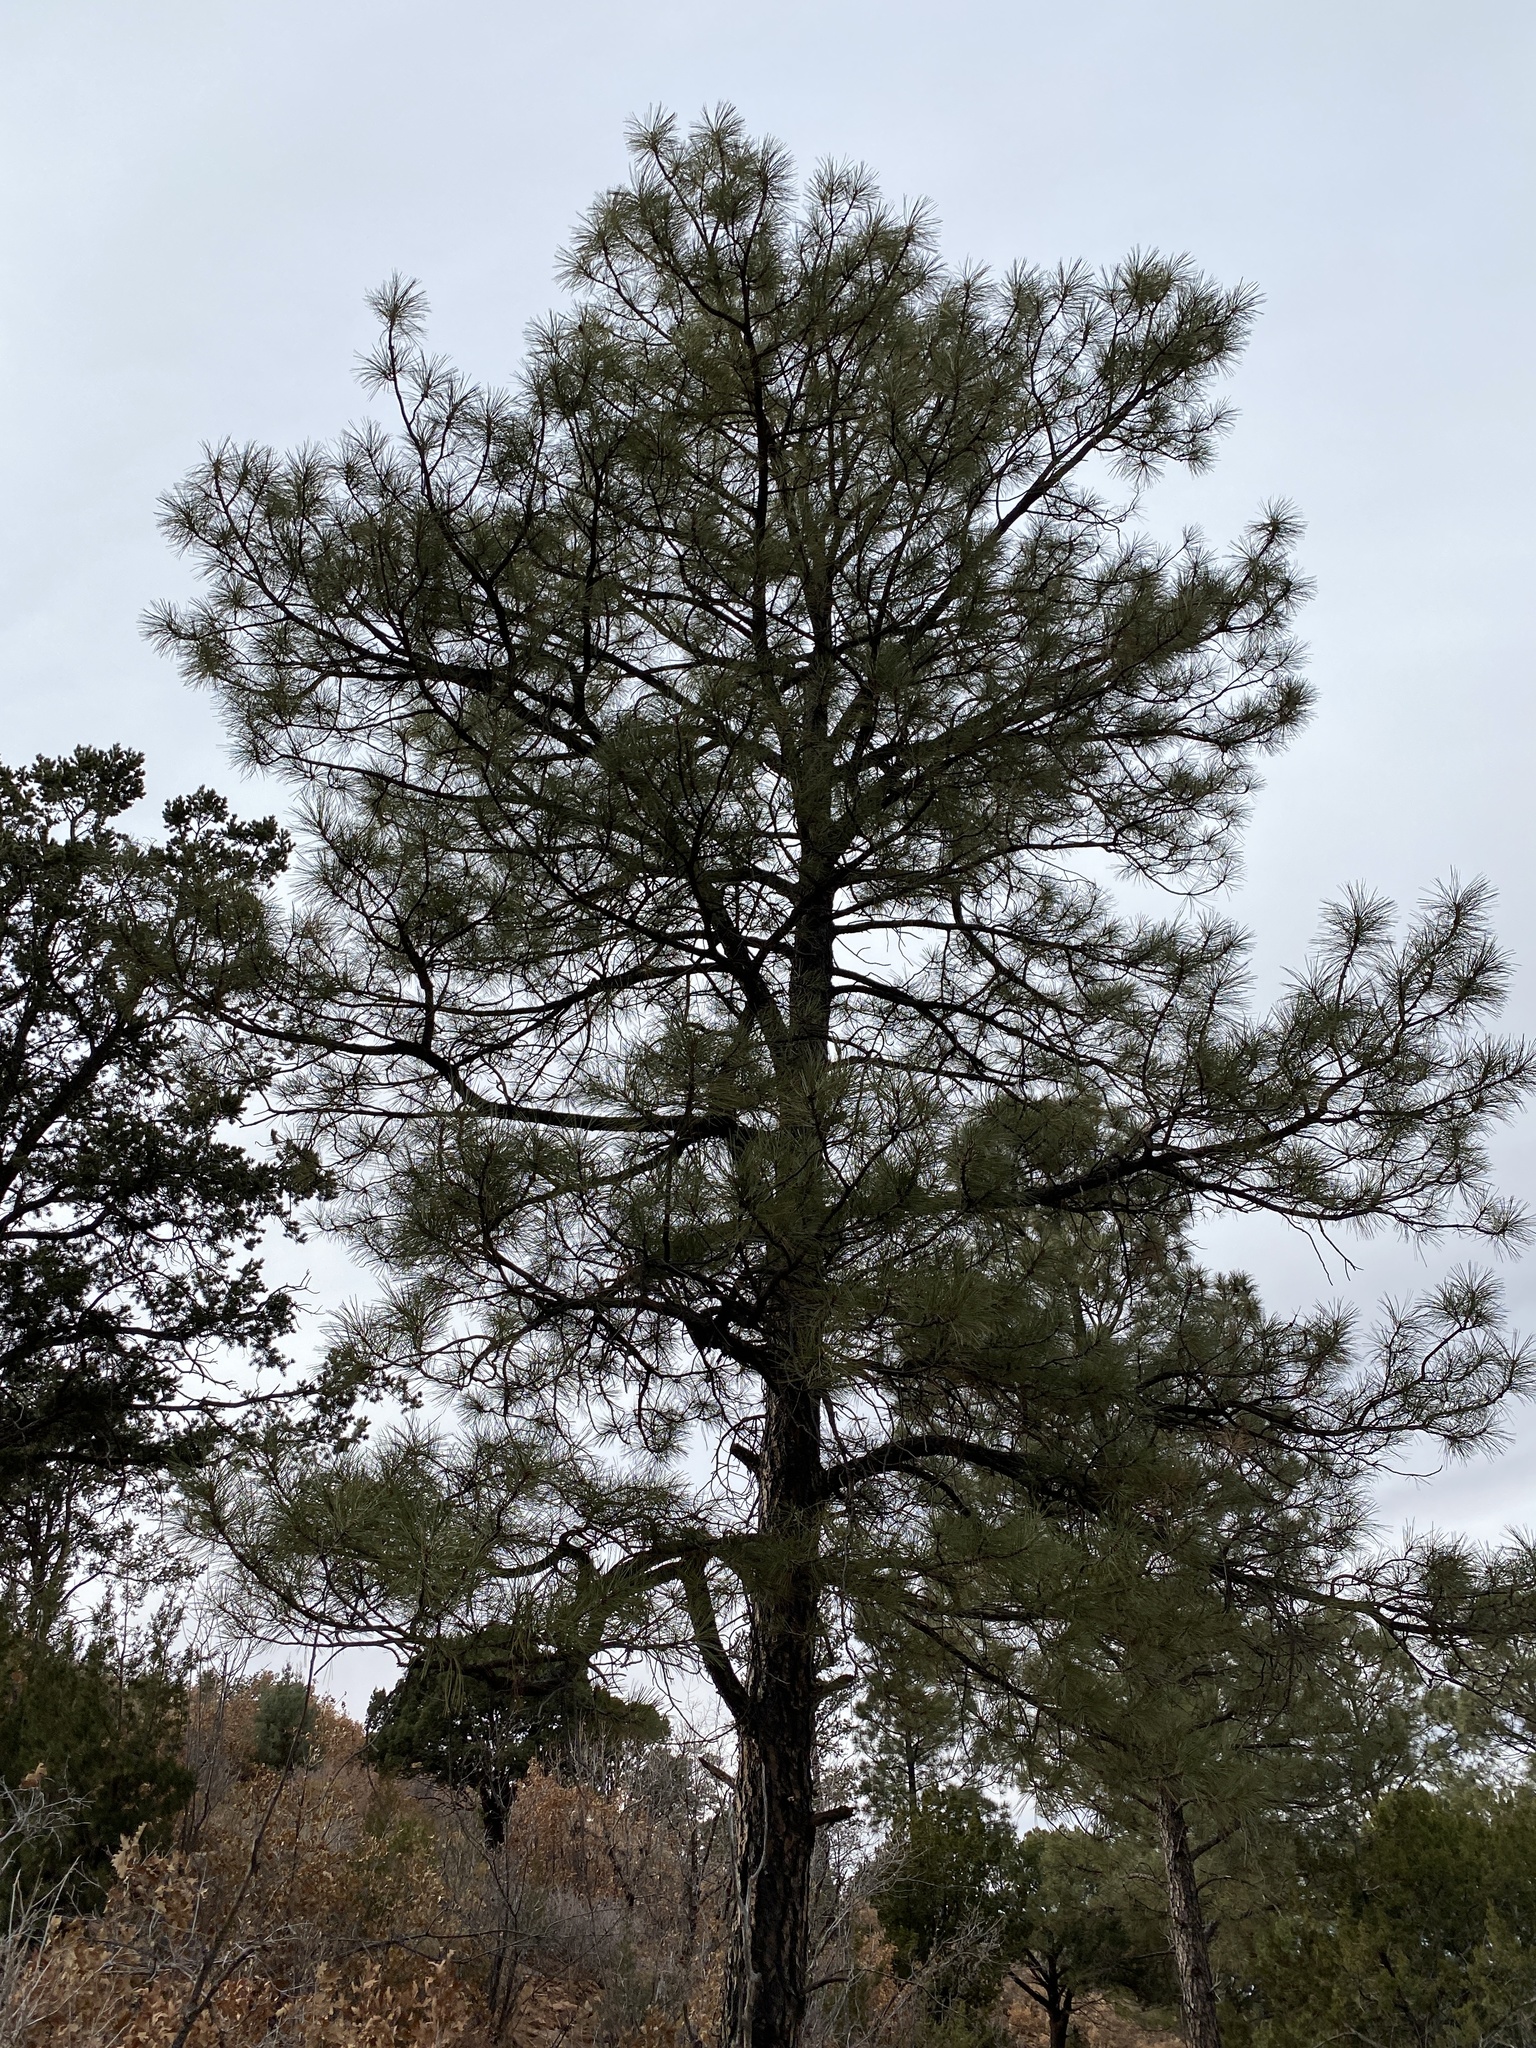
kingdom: Plantae
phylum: Tracheophyta
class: Pinopsida
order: Pinales
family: Pinaceae
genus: Pinus
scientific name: Pinus ponderosa
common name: Western yellow-pine
